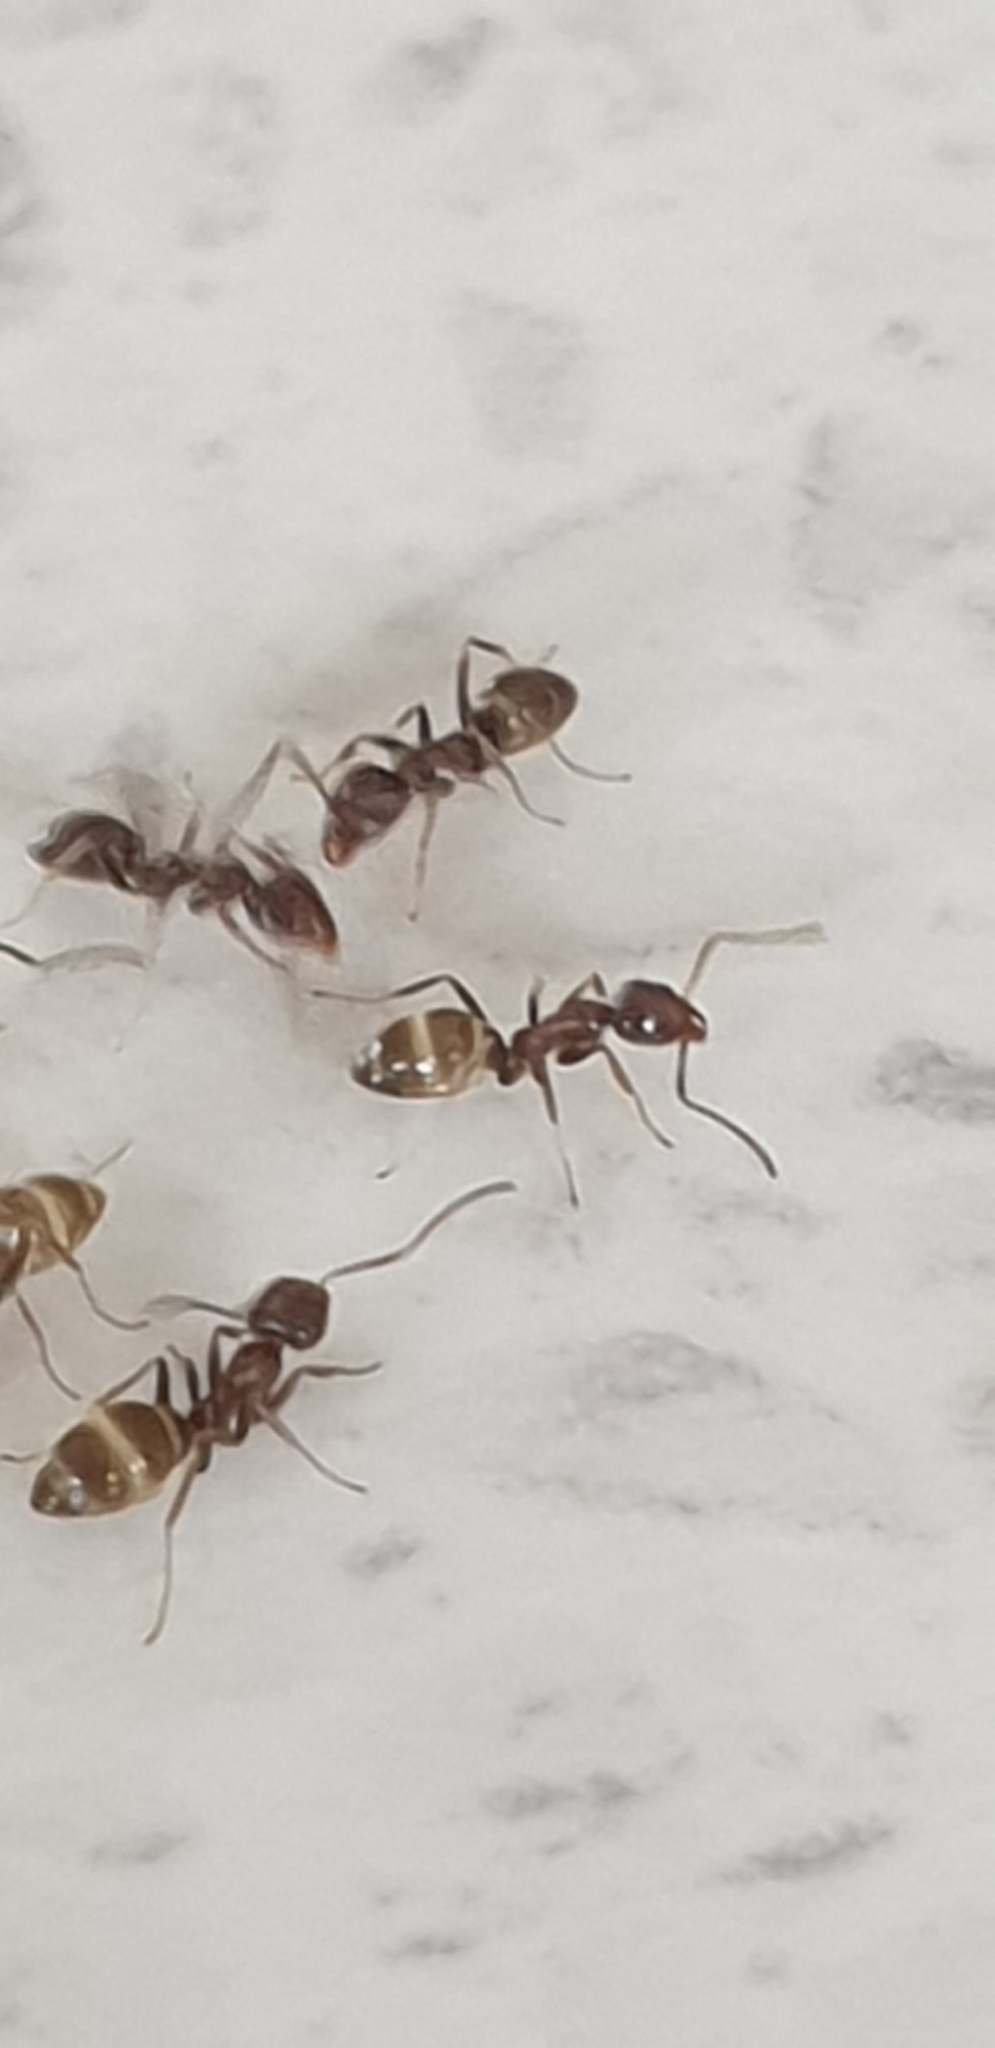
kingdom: Animalia
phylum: Arthropoda
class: Insecta
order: Hymenoptera
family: Formicidae
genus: Linepithema
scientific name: Linepithema humile
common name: Argentine ant
